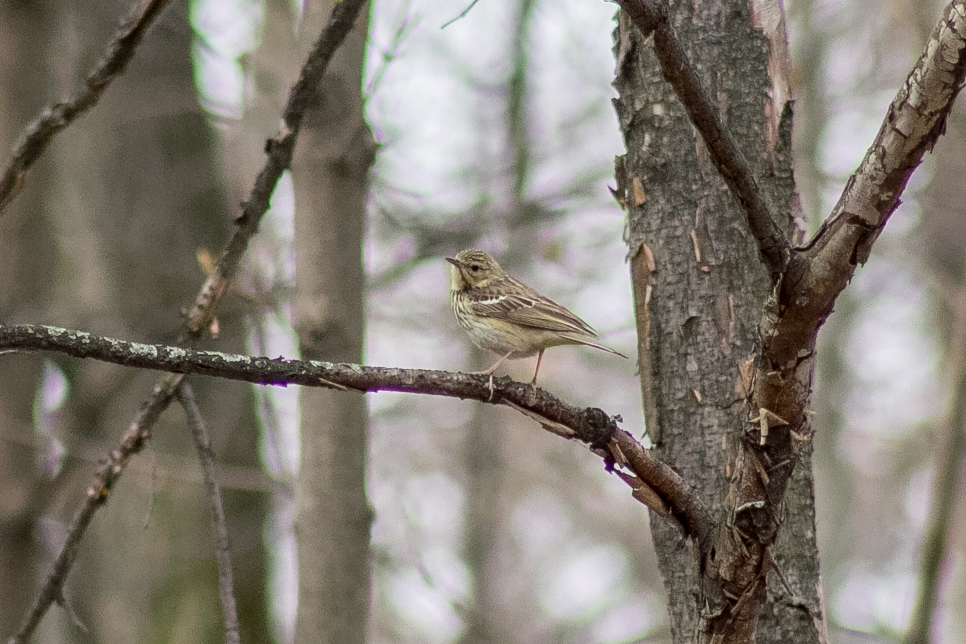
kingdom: Animalia
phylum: Chordata
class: Aves
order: Passeriformes
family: Motacillidae
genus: Anthus
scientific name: Anthus trivialis
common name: Tree pipit
